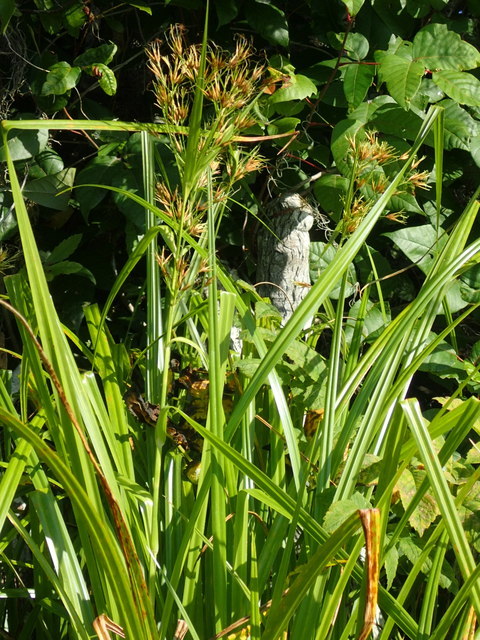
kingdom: Plantae
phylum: Tracheophyta
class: Liliopsida
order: Poales
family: Cyperaceae
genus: Rhynchospora
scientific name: Rhynchospora corniculata
